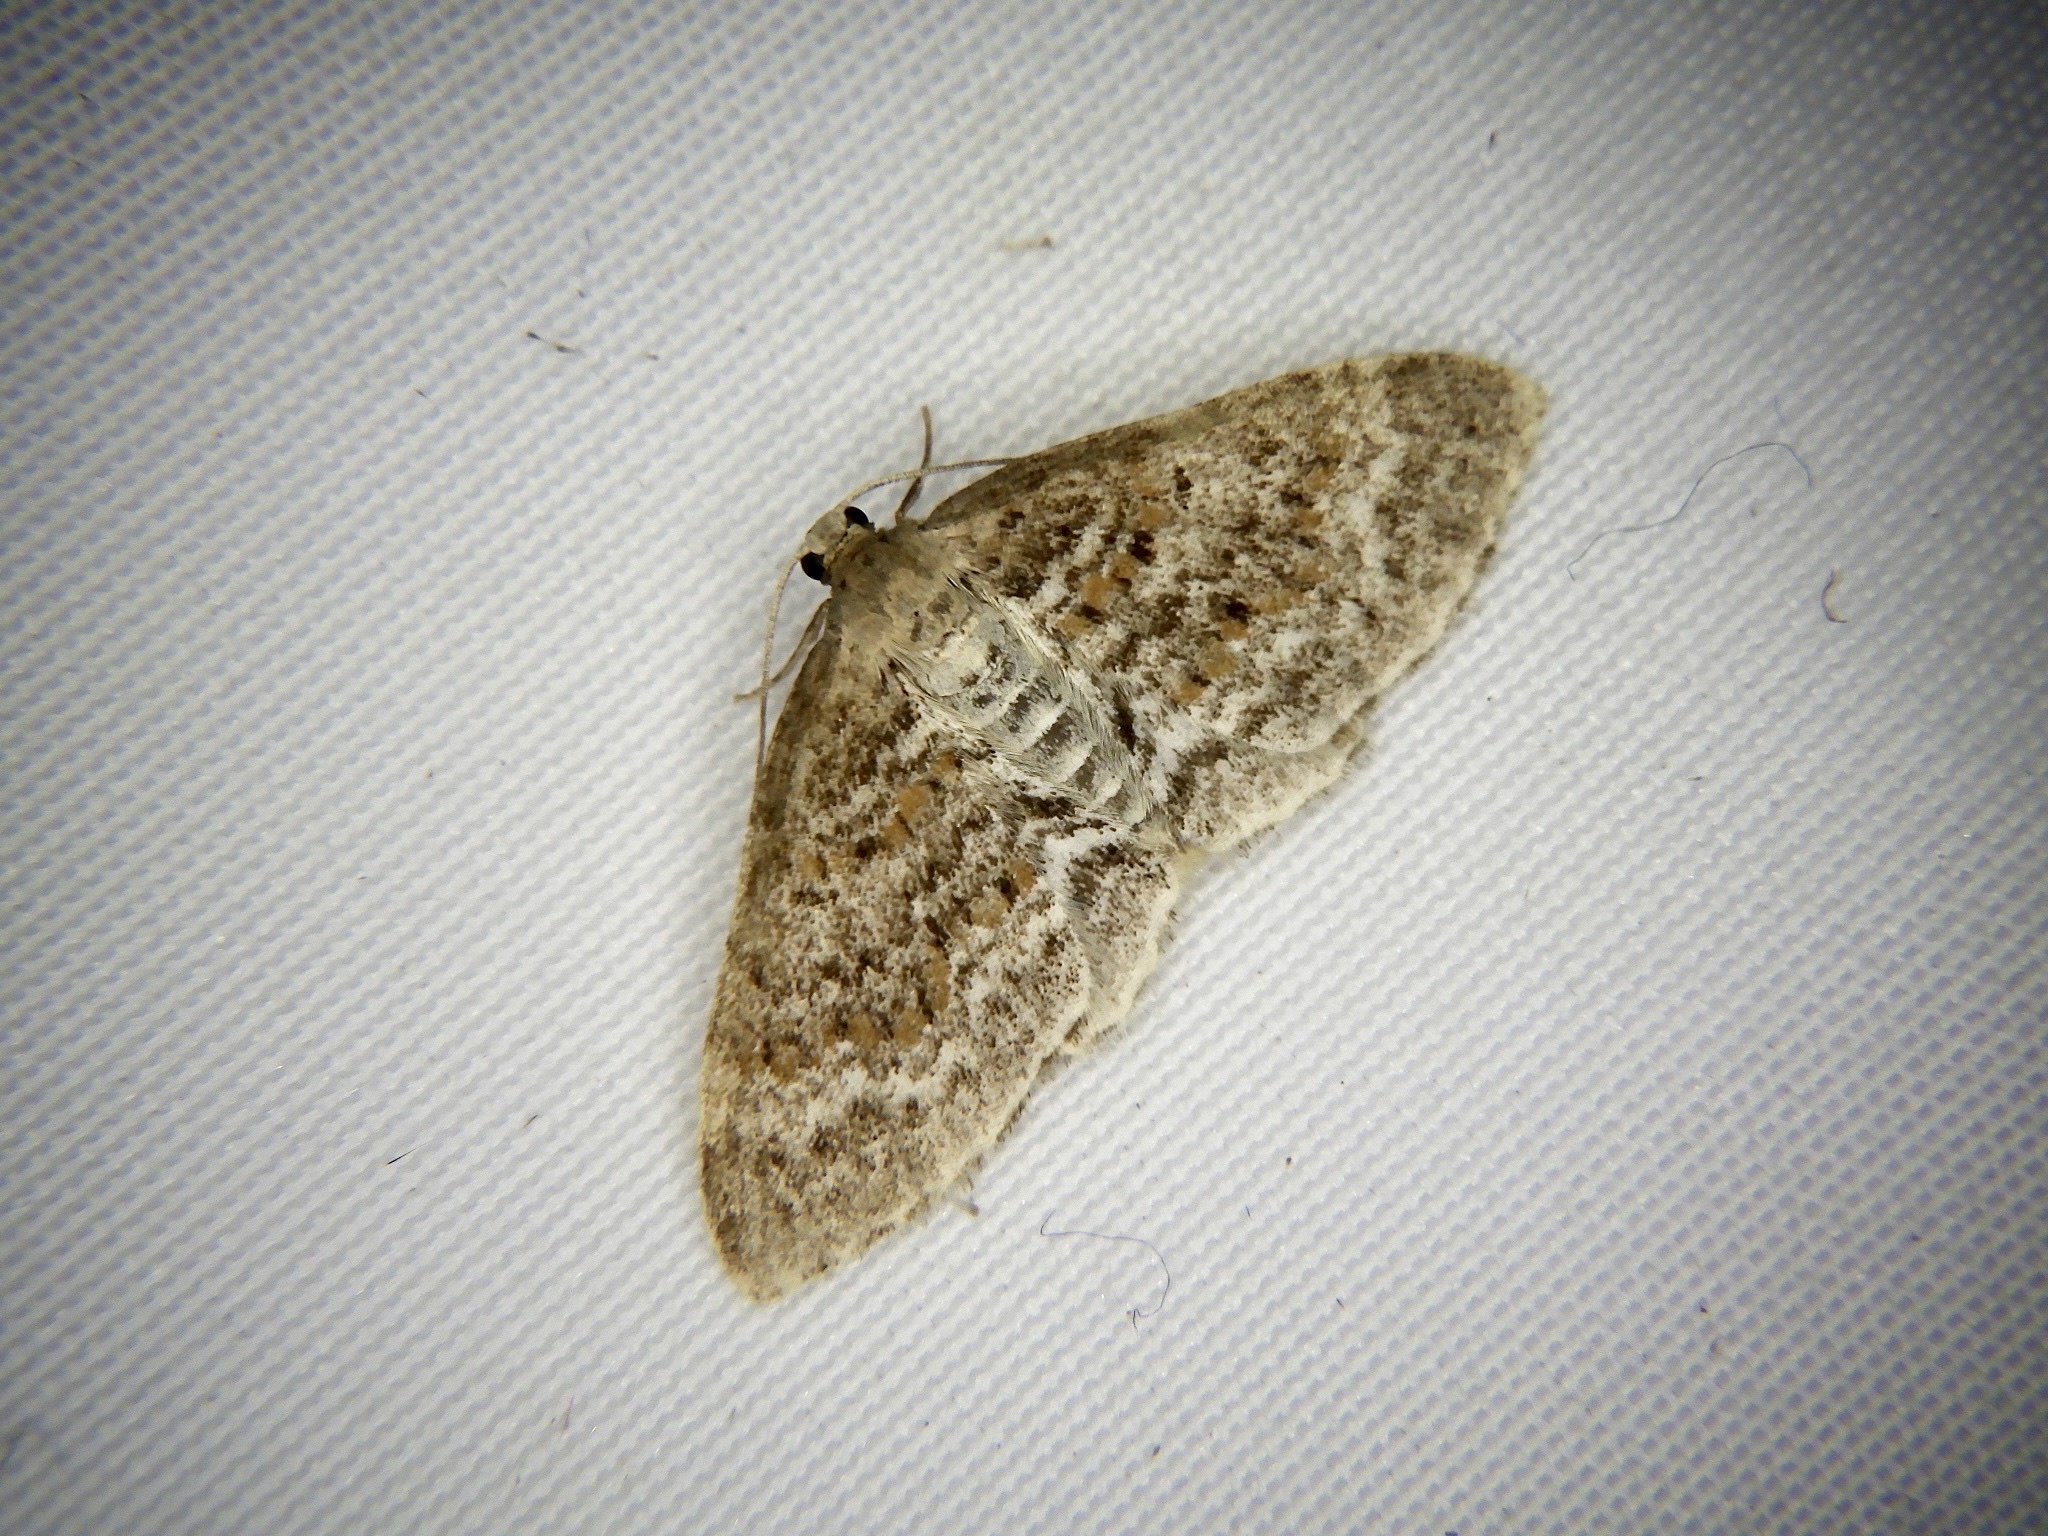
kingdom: Animalia
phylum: Arthropoda
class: Insecta
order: Lepidoptera
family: Geometridae
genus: Hydrelia
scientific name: Hydrelia nisaria
